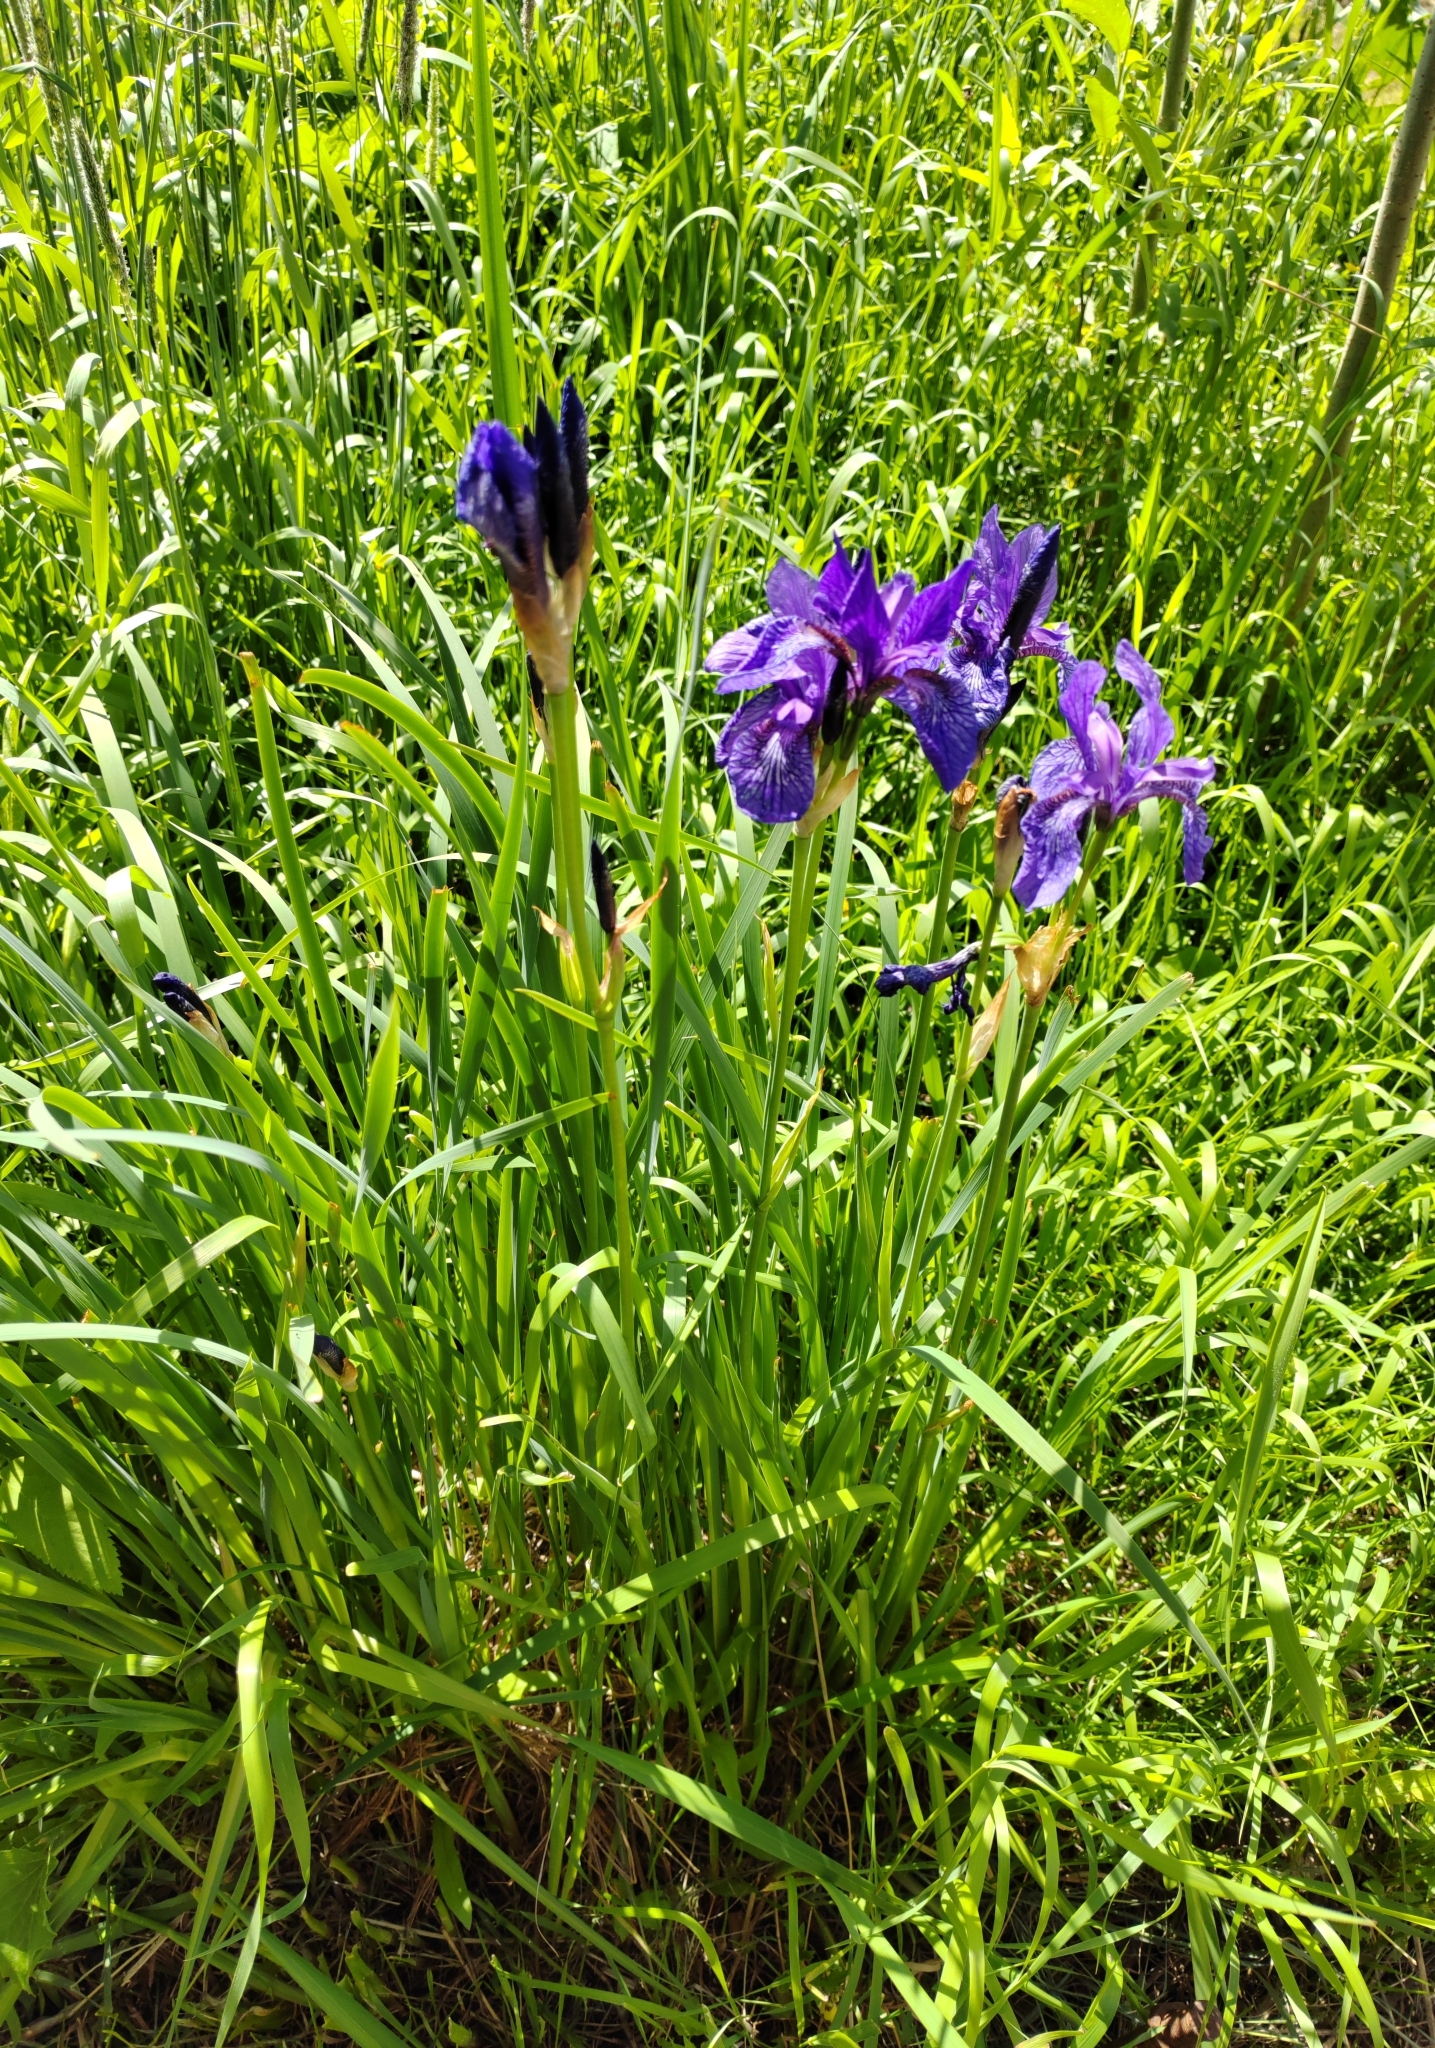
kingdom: Plantae
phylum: Tracheophyta
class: Liliopsida
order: Asparagales
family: Iridaceae
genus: Iris
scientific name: Iris sibirica
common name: Siberian iris
